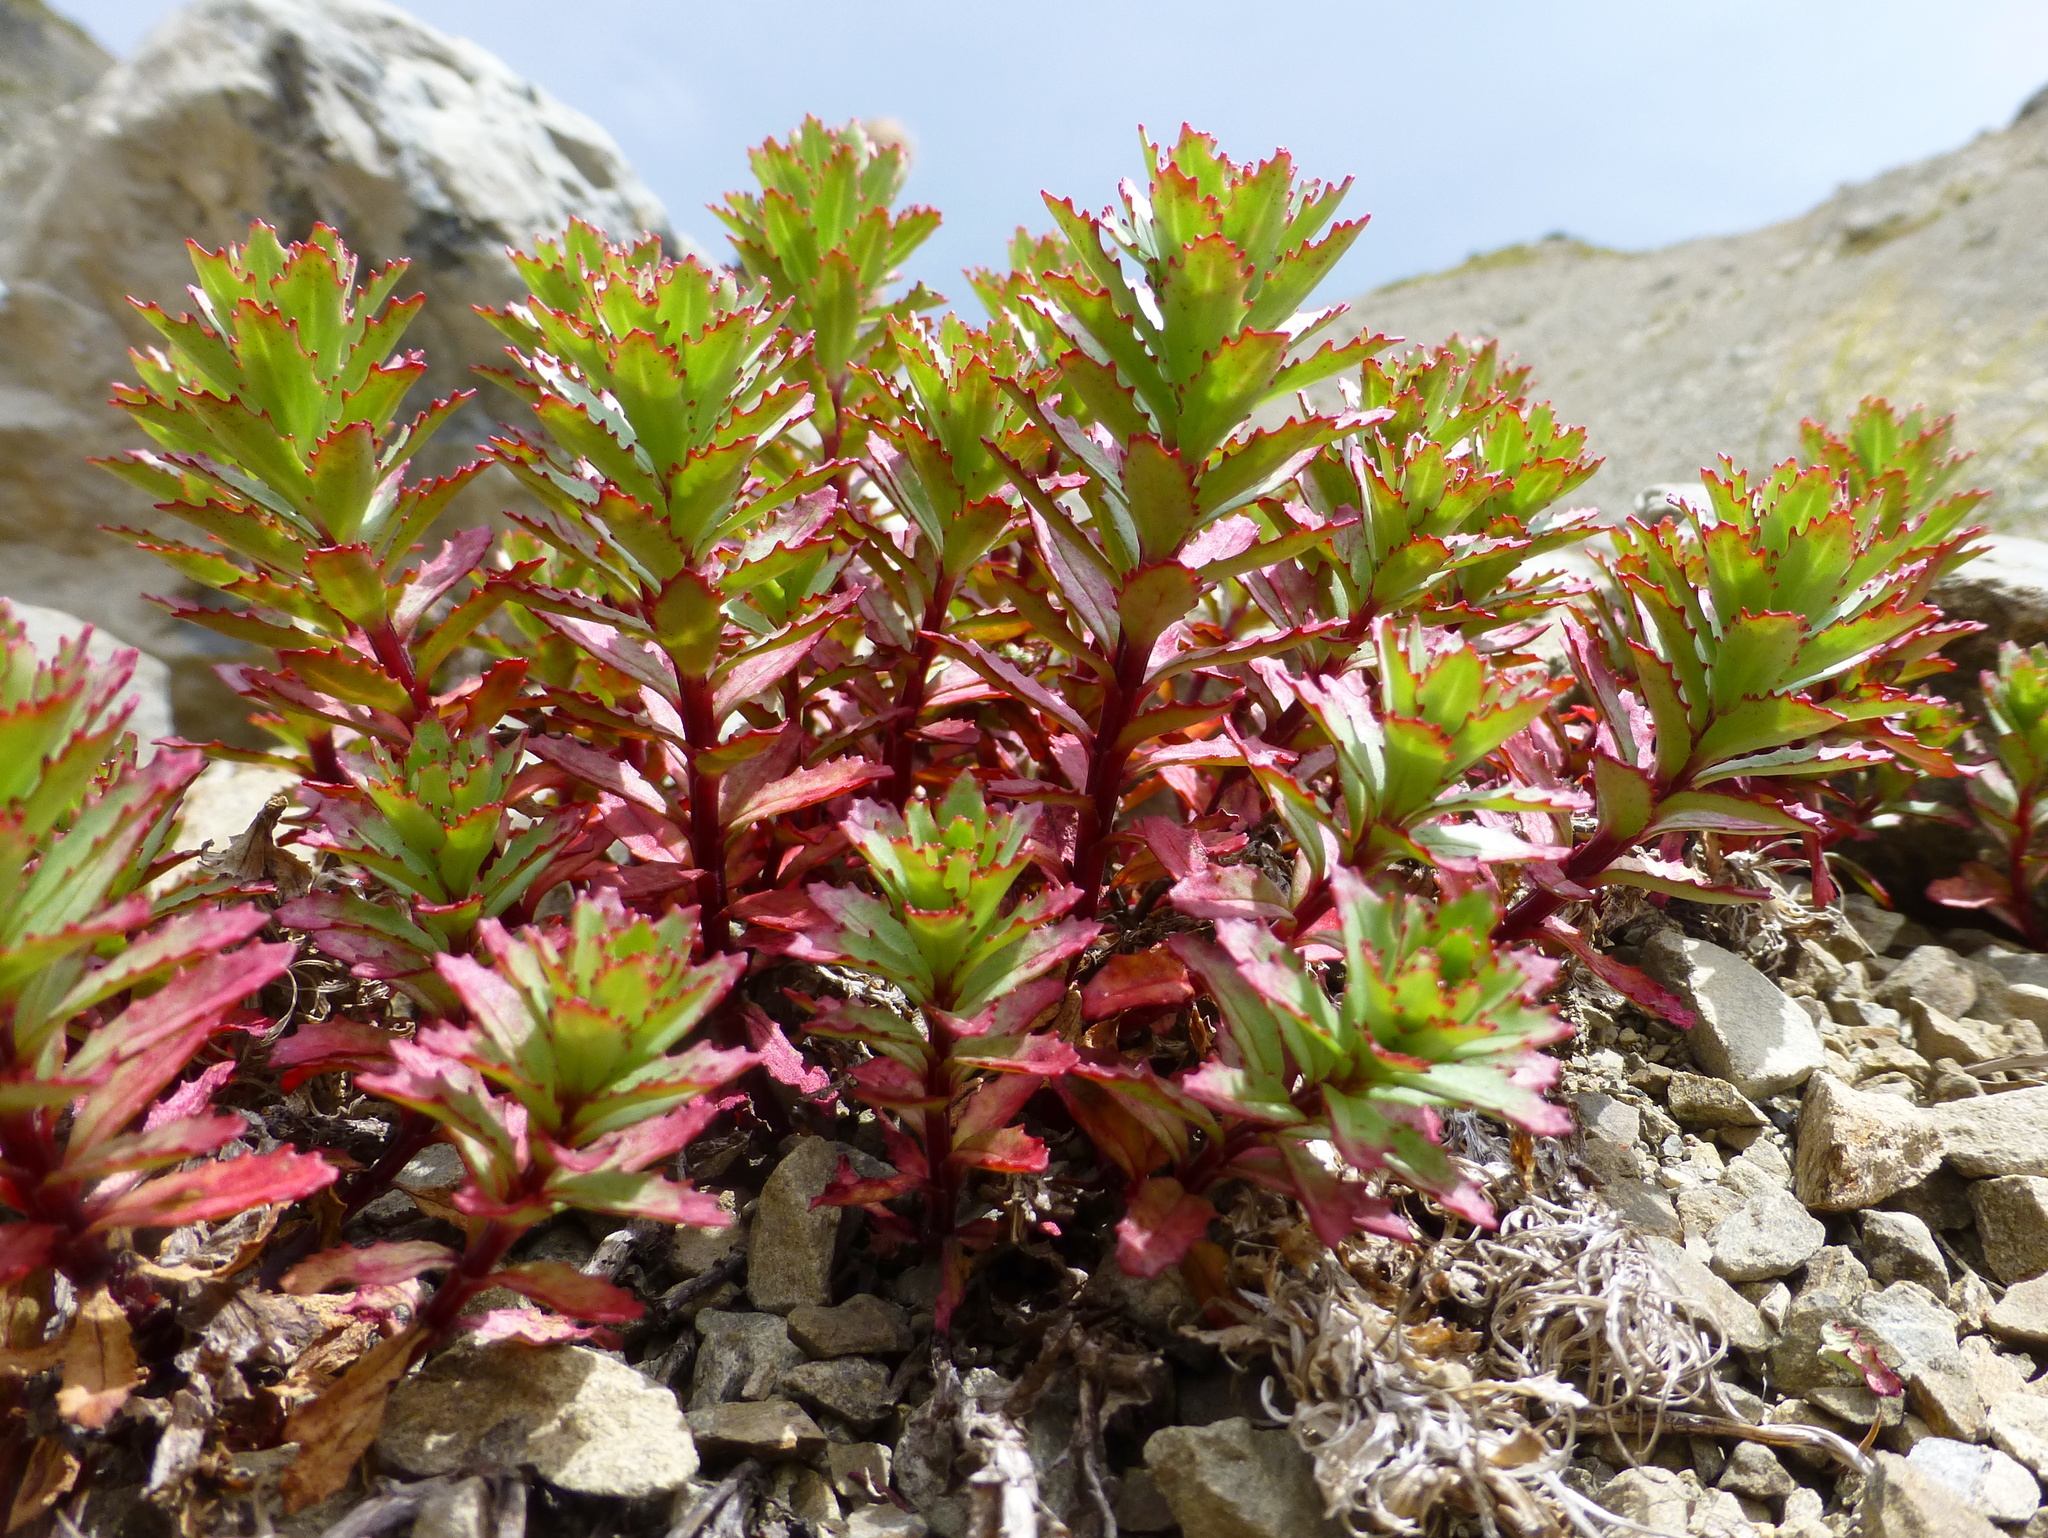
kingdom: Plantae
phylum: Tracheophyta
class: Magnoliopsida
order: Myrtales
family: Onagraceae
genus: Epilobium
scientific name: Epilobium pycnostachyum
